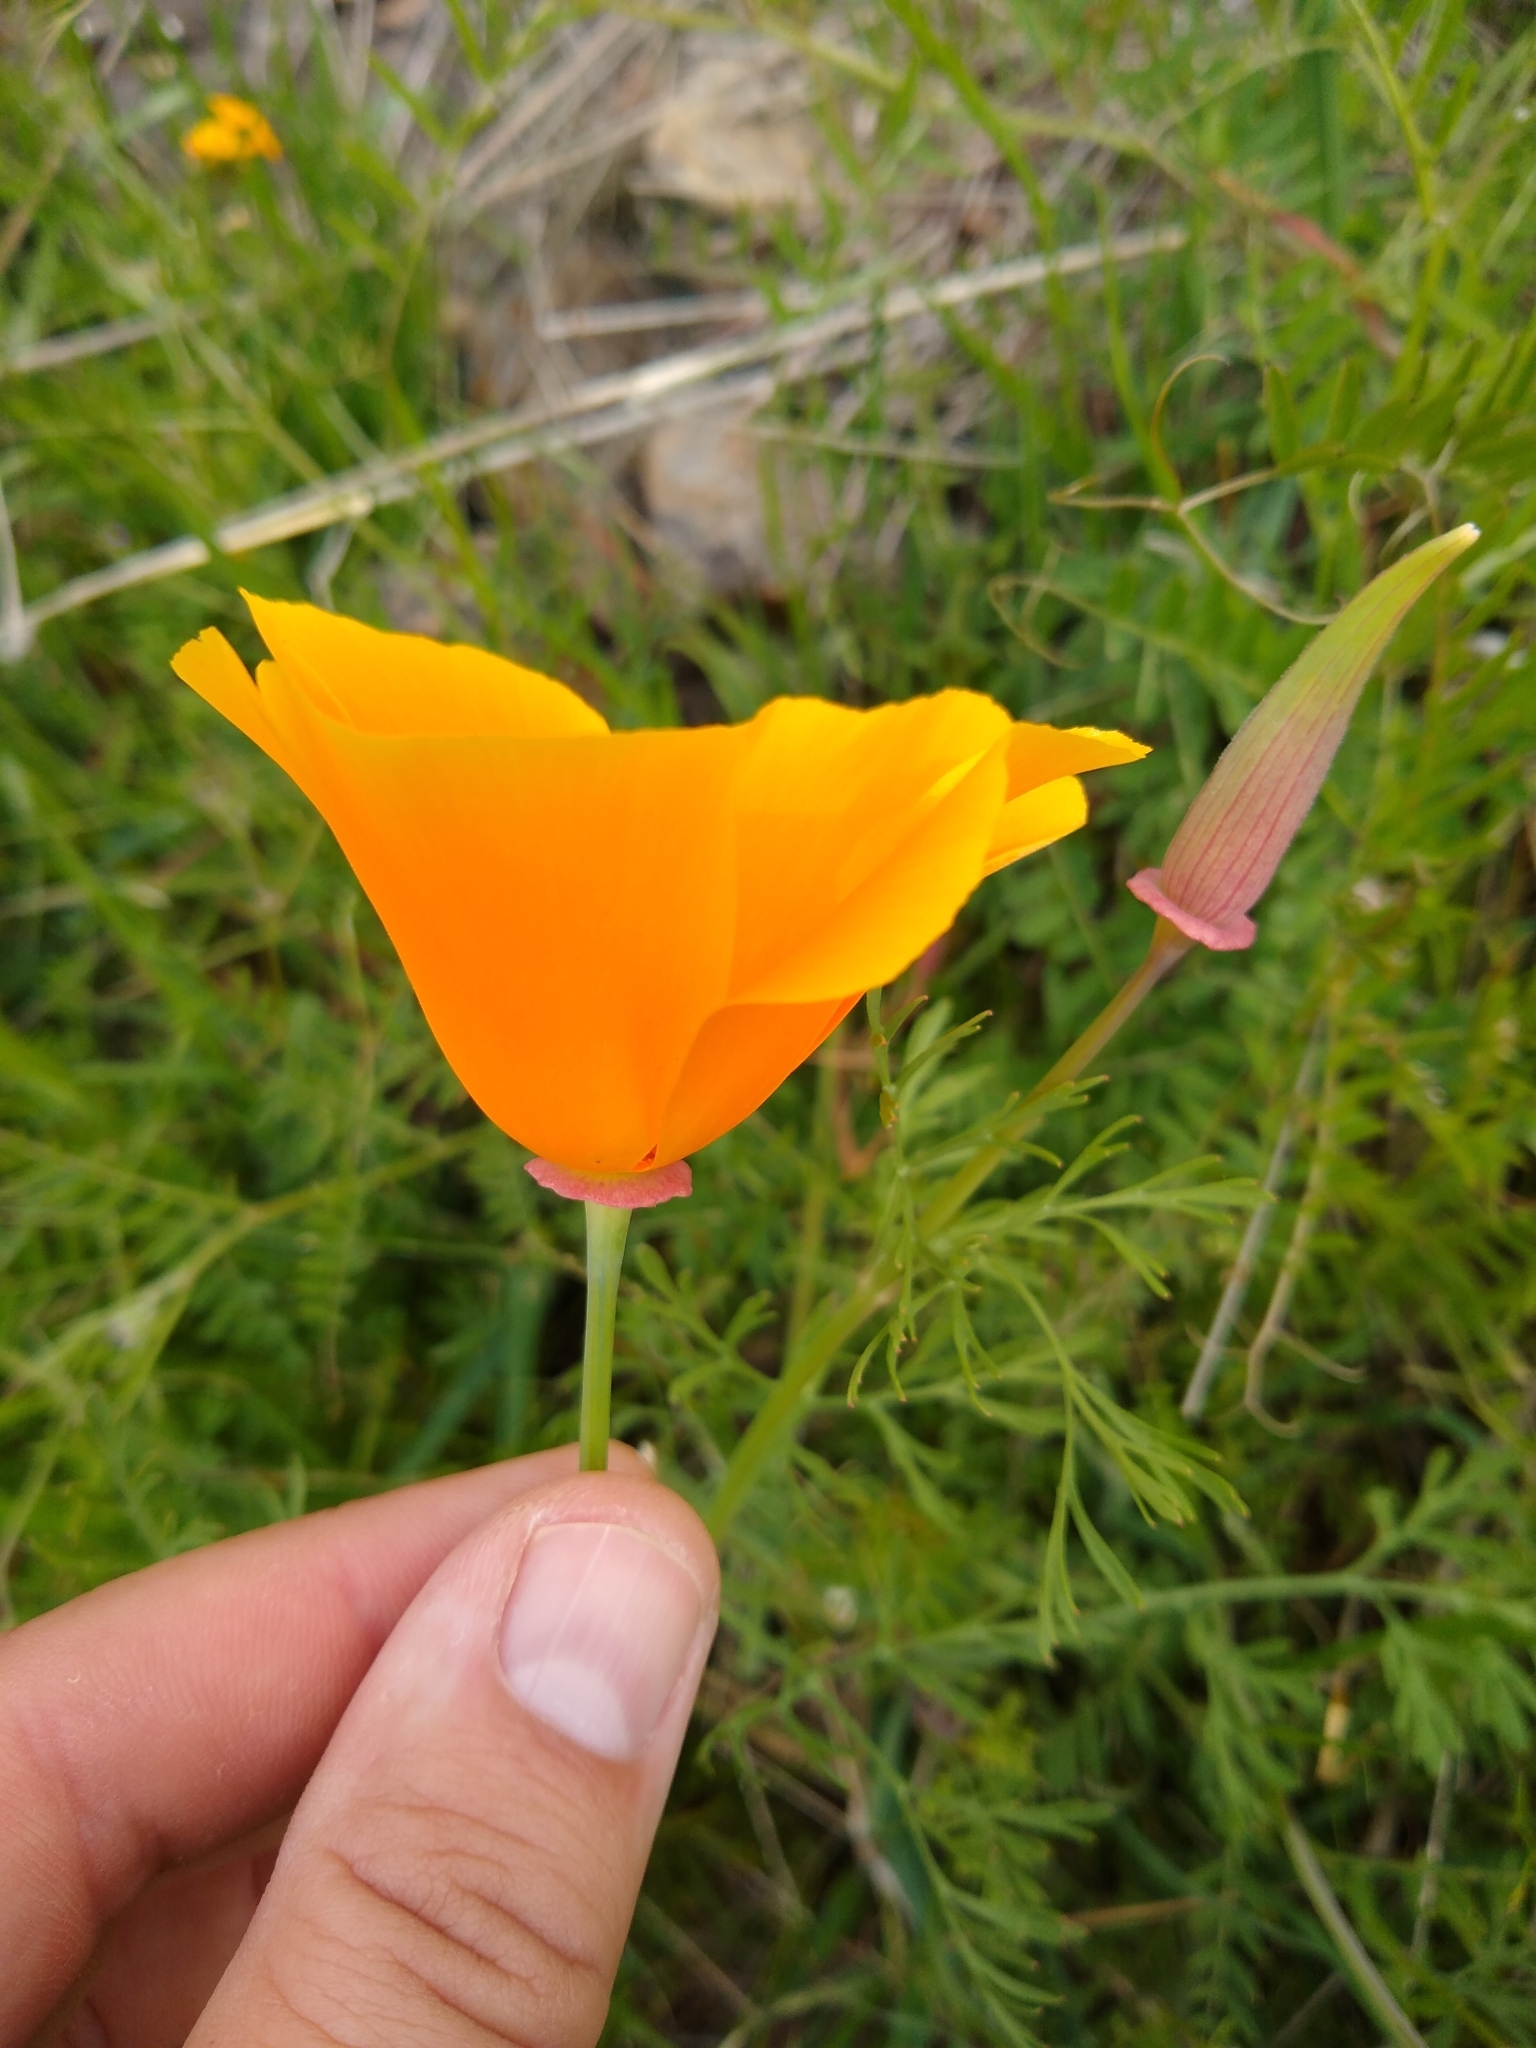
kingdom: Plantae
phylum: Tracheophyta
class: Magnoliopsida
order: Ranunculales
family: Papaveraceae
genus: Eschscholzia
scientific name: Eschscholzia californica
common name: California poppy
